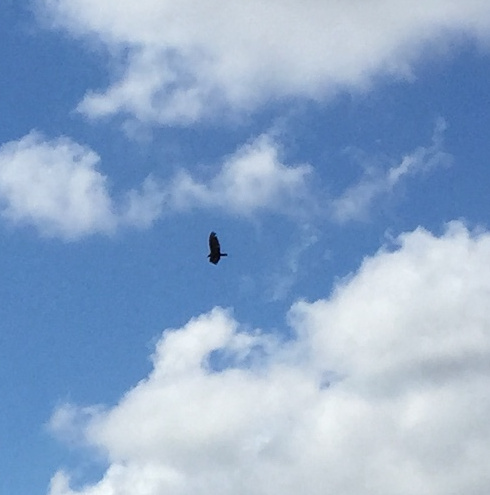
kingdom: Animalia
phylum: Chordata
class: Aves
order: Accipitriformes
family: Cathartidae
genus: Cathartes
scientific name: Cathartes aura
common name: Turkey vulture
